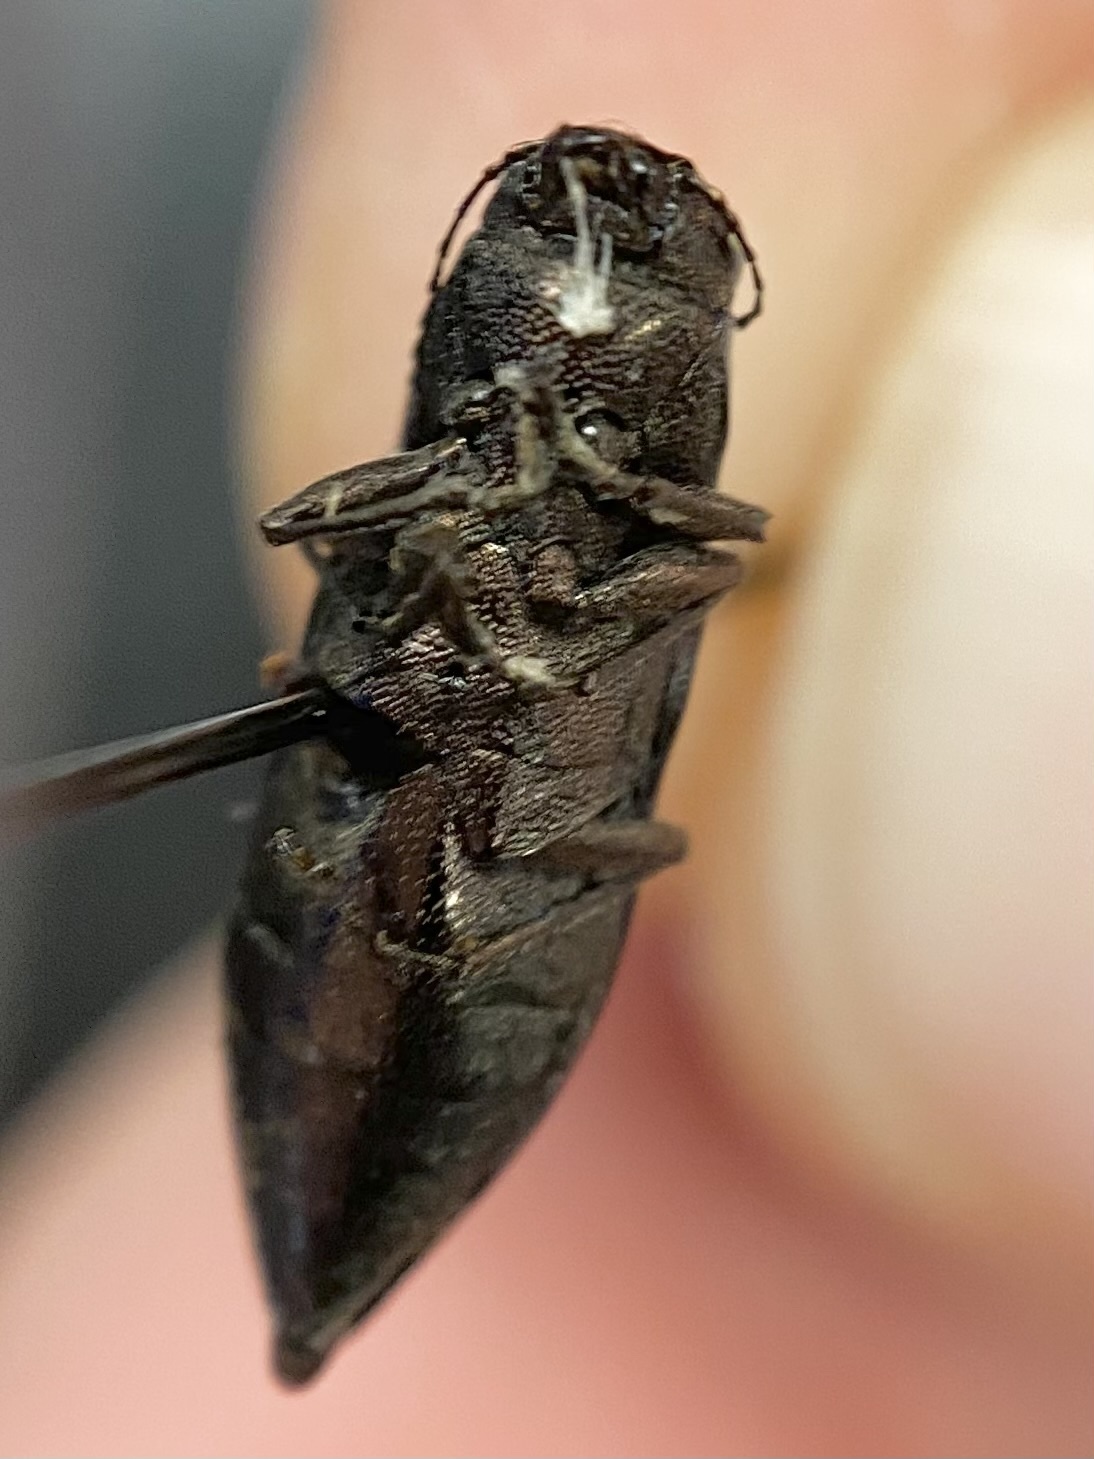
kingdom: Animalia
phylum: Arthropoda
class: Insecta
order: Coleoptera
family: Buprestidae
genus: Spectralia
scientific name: Spectralia gracilipes
